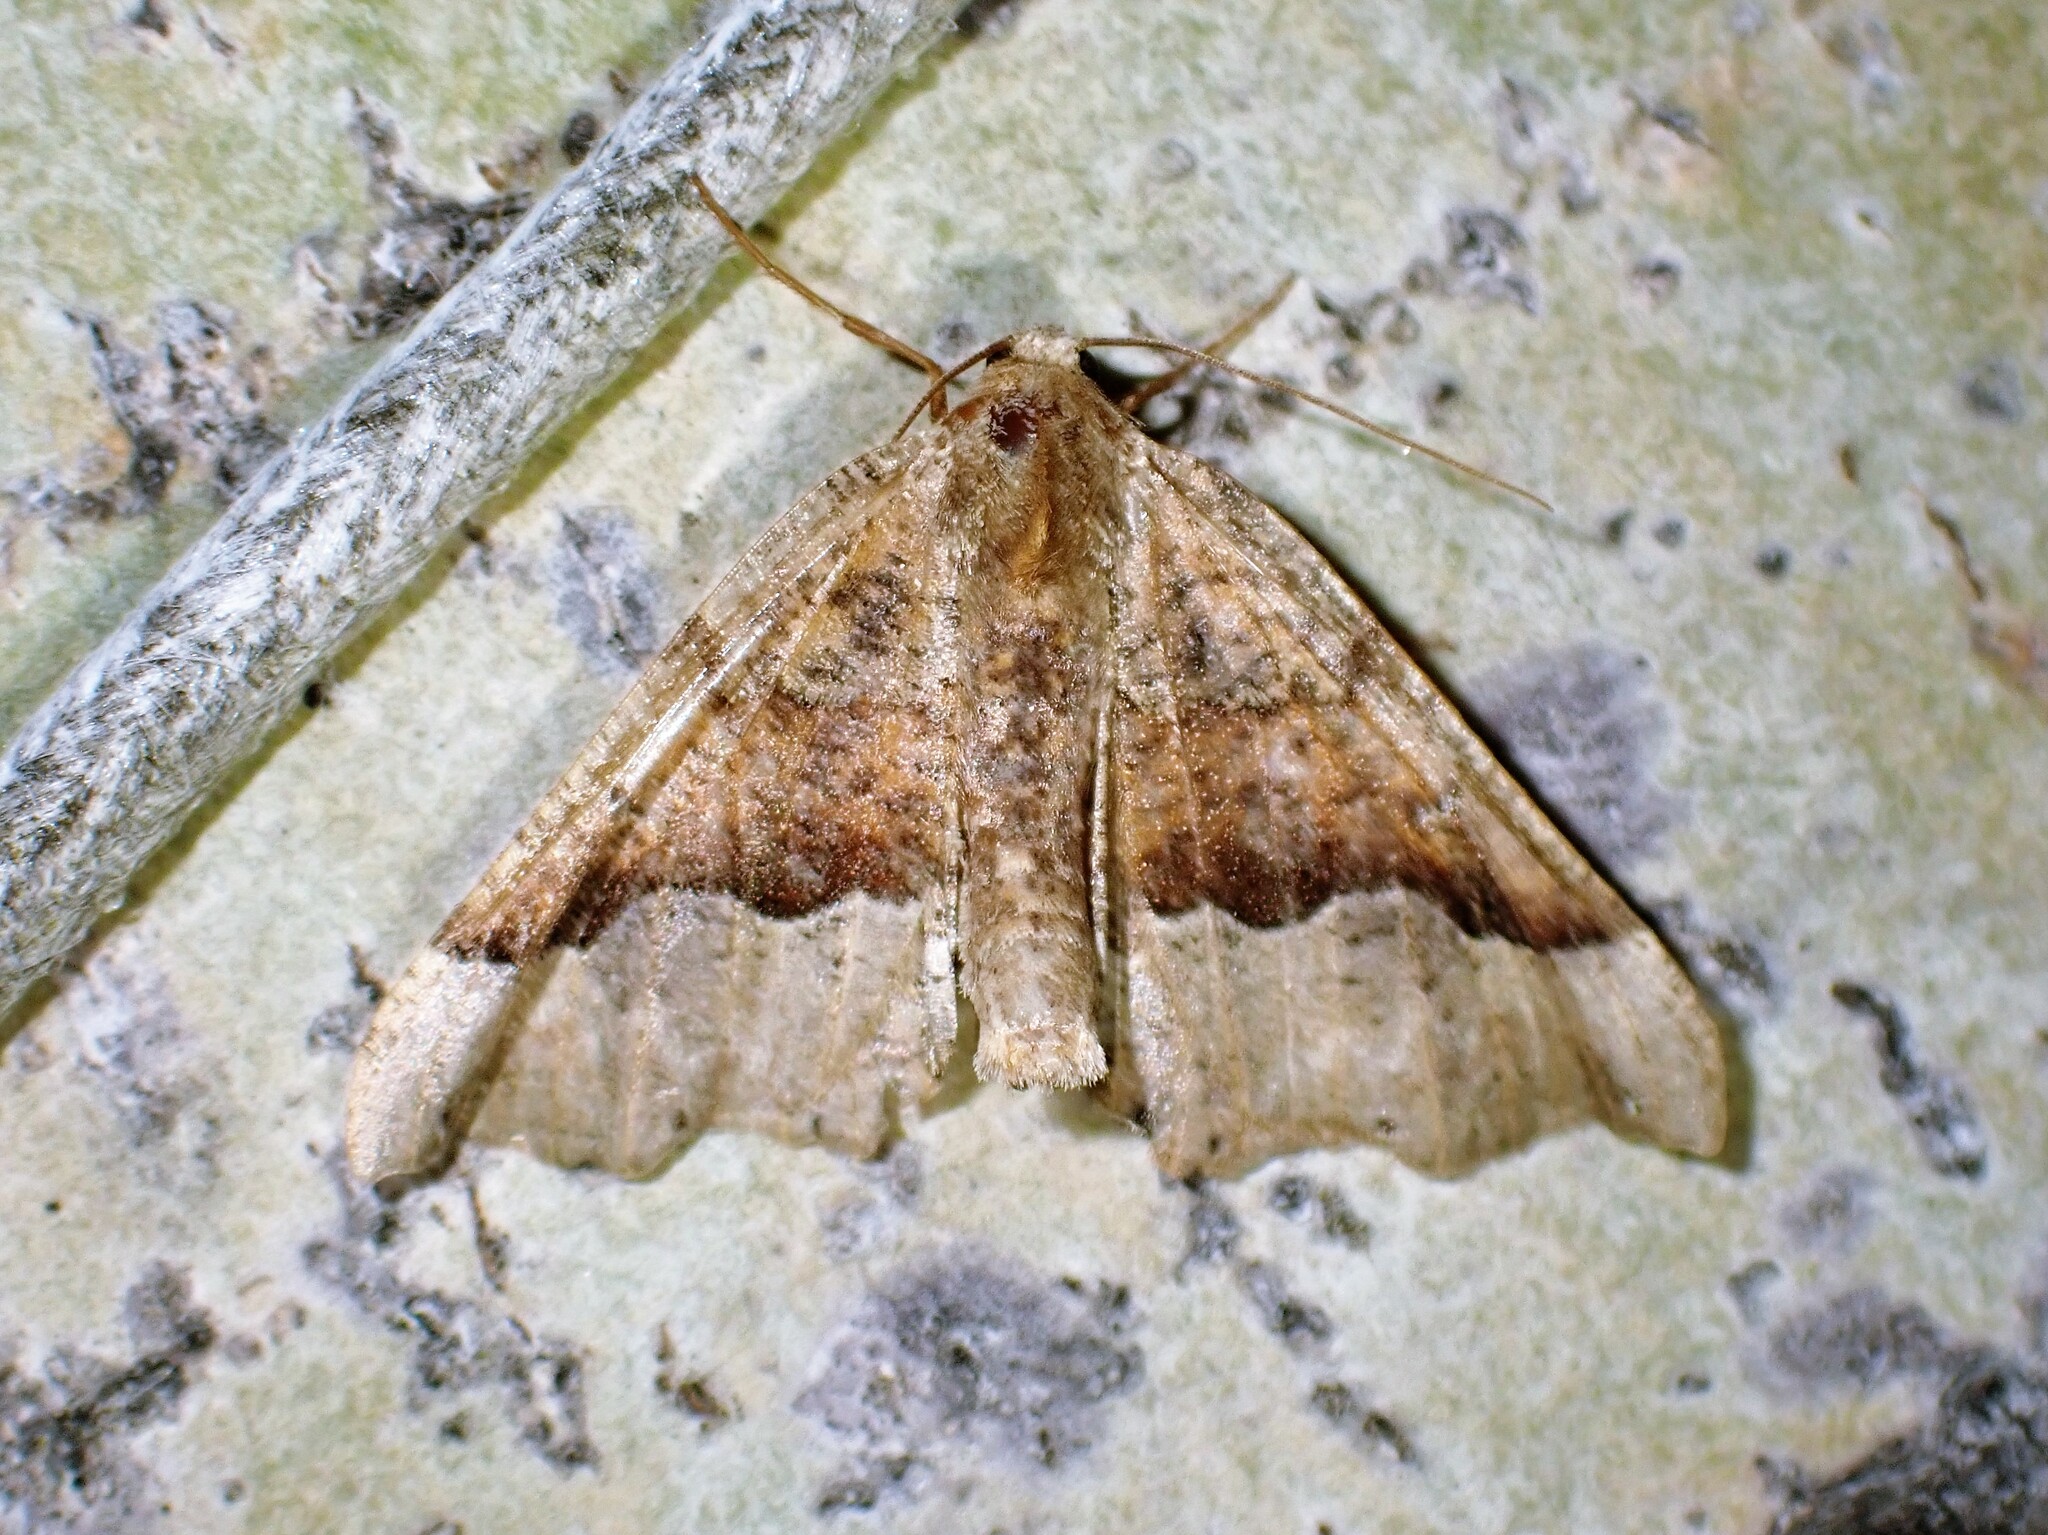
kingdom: Animalia
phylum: Arthropoda
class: Insecta
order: Lepidoptera
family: Geometridae
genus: Pero
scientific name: Pero morrisonaria
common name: Morrison's pero
